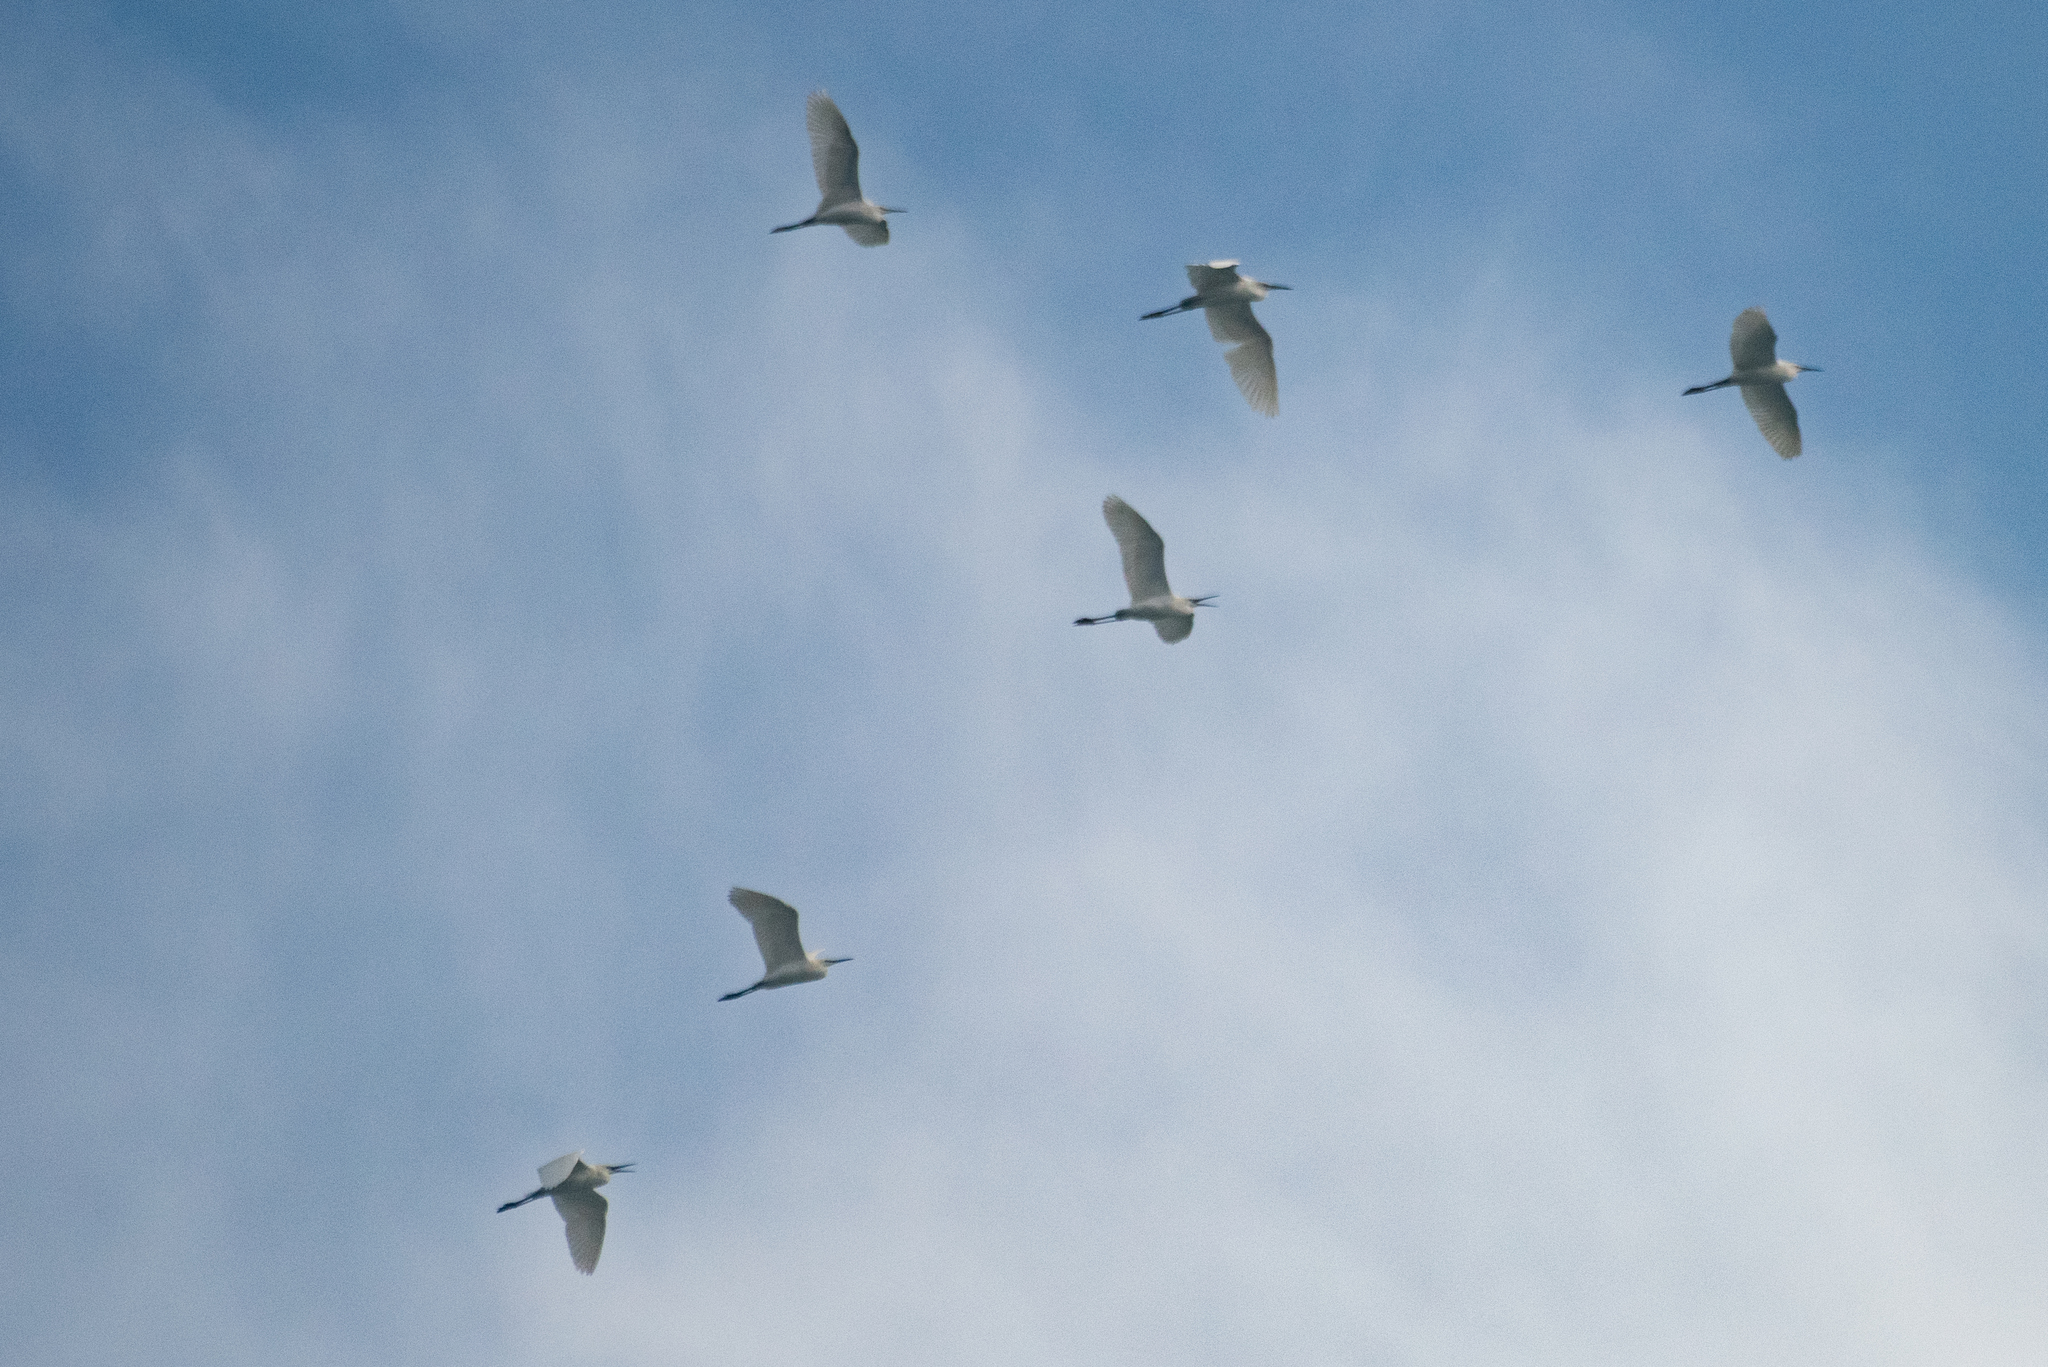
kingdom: Animalia
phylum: Chordata
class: Aves
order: Pelecaniformes
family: Ardeidae
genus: Egretta
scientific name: Egretta garzetta
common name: Little egret
